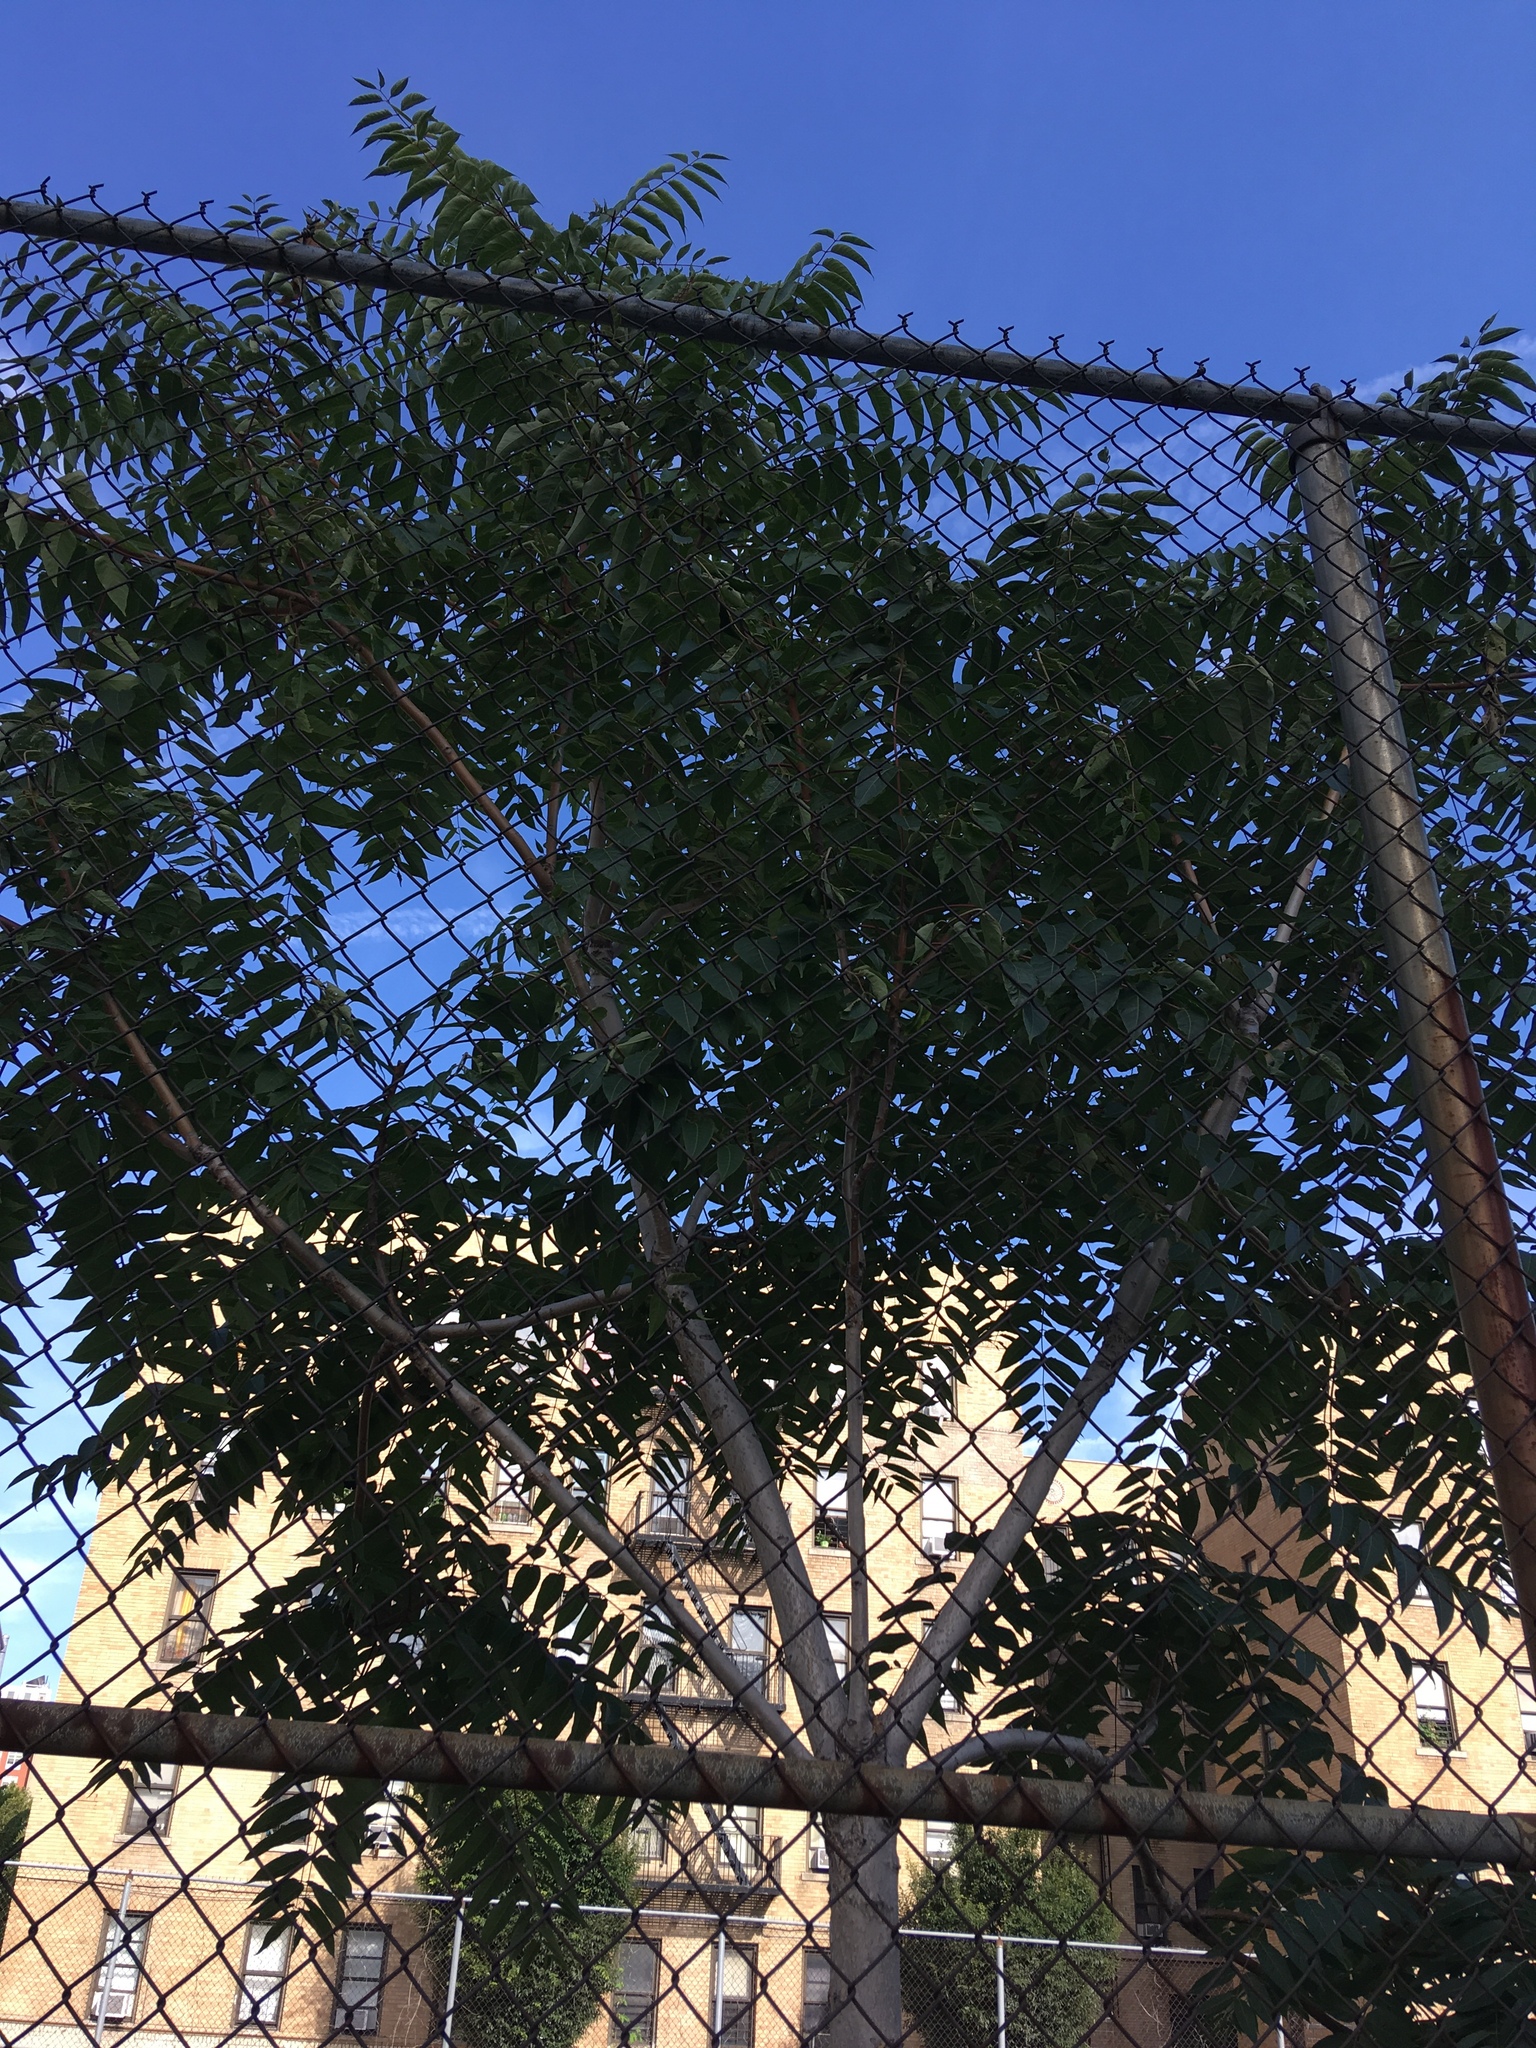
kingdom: Plantae
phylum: Tracheophyta
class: Magnoliopsida
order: Sapindales
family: Simaroubaceae
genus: Ailanthus
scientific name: Ailanthus altissima
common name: Tree-of-heaven
